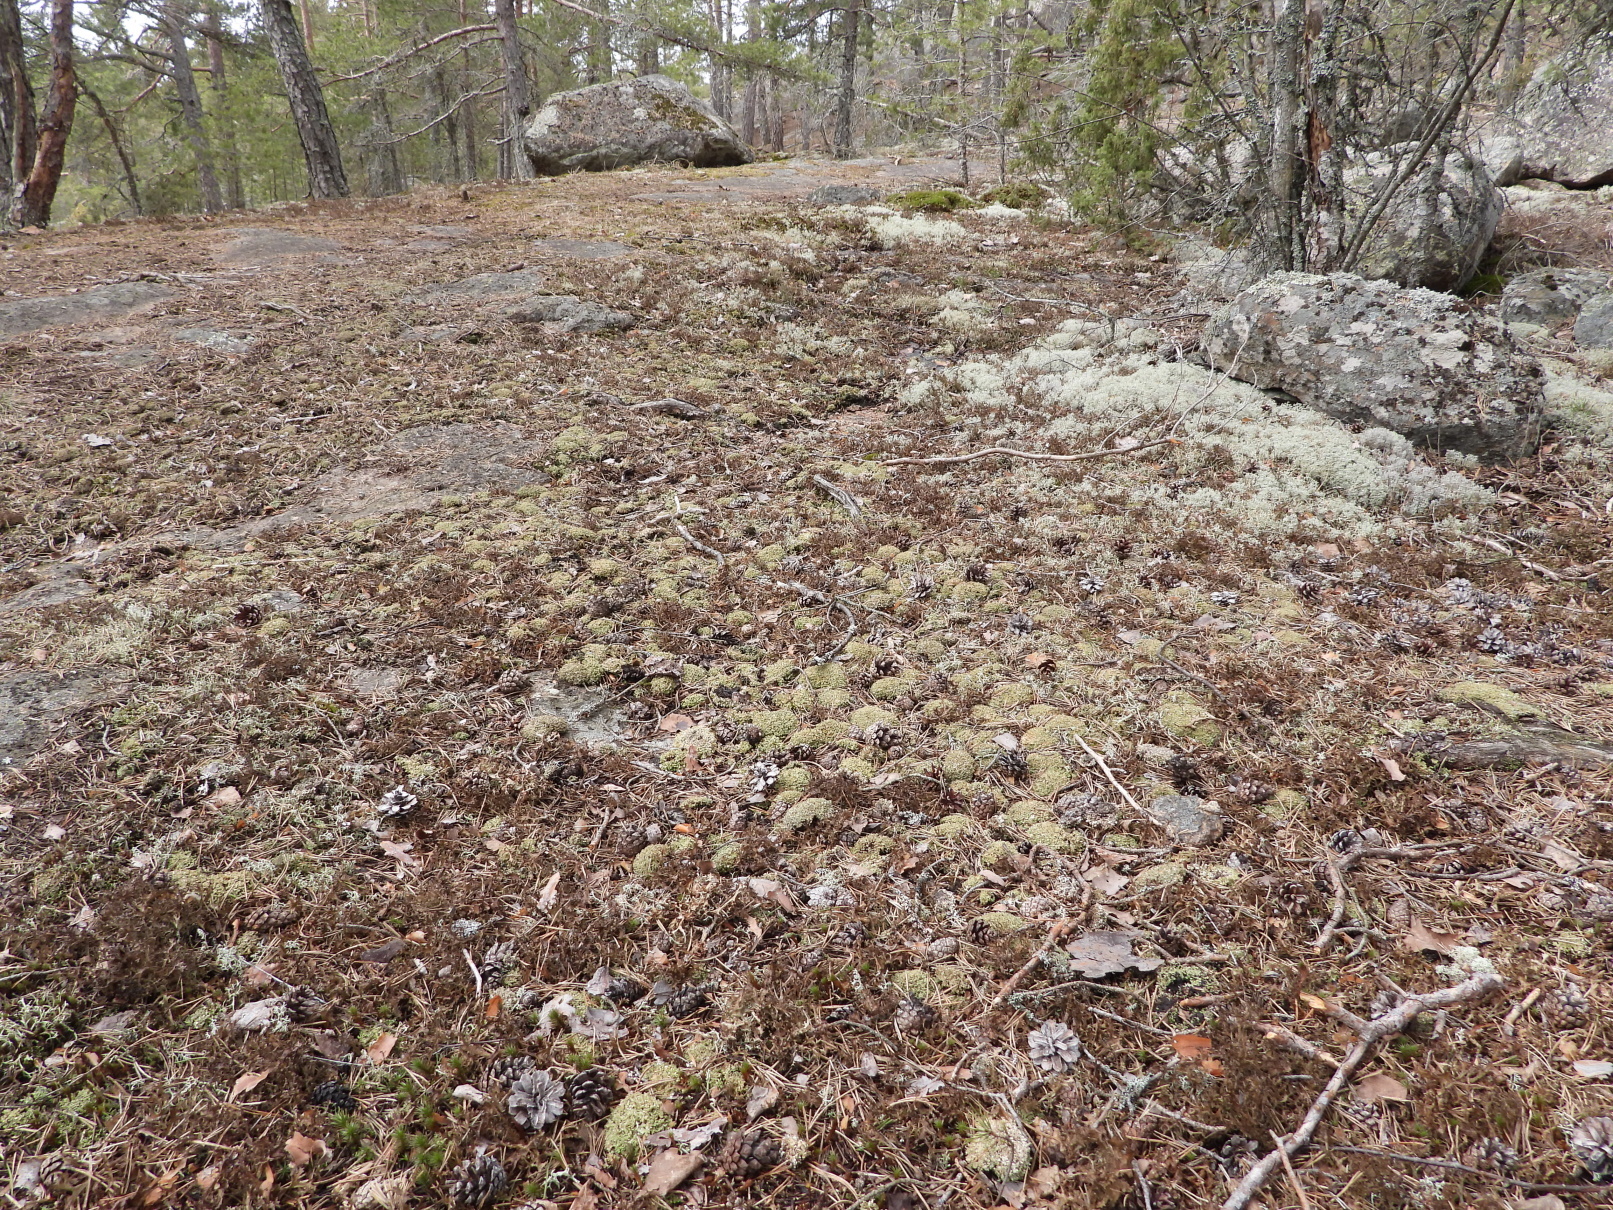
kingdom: Fungi
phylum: Ascomycota
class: Lecanoromycetes
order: Lecanorales
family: Cladoniaceae
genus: Cladonia
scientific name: Cladonia strepsilis
